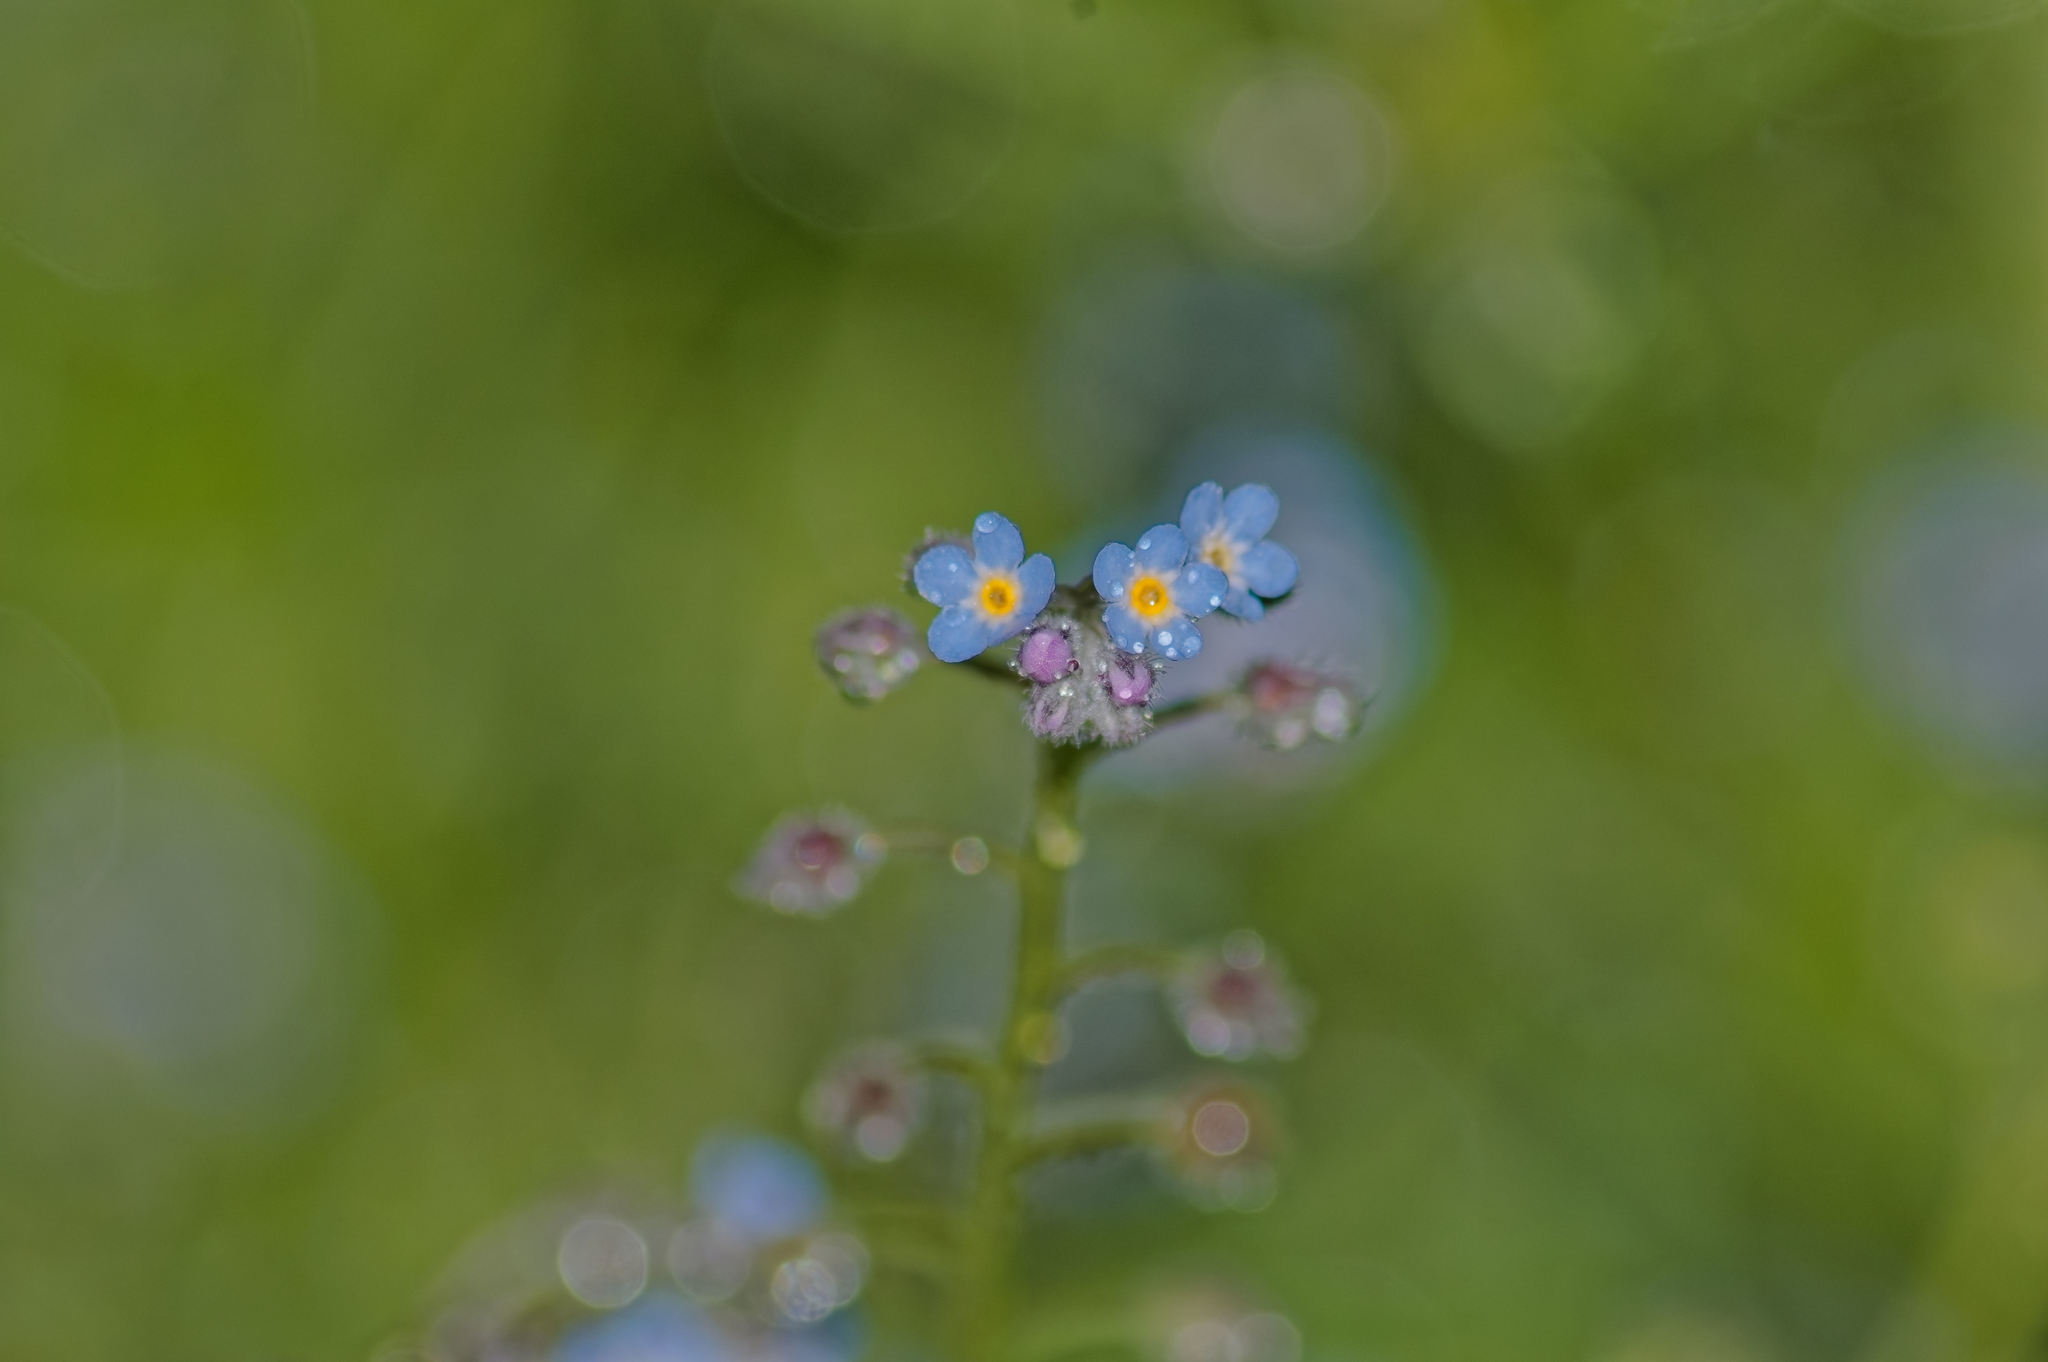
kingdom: Plantae
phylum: Tracheophyta
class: Magnoliopsida
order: Boraginales
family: Boraginaceae
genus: Myosotis
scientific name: Myosotis arvensis
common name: Field forget-me-not
